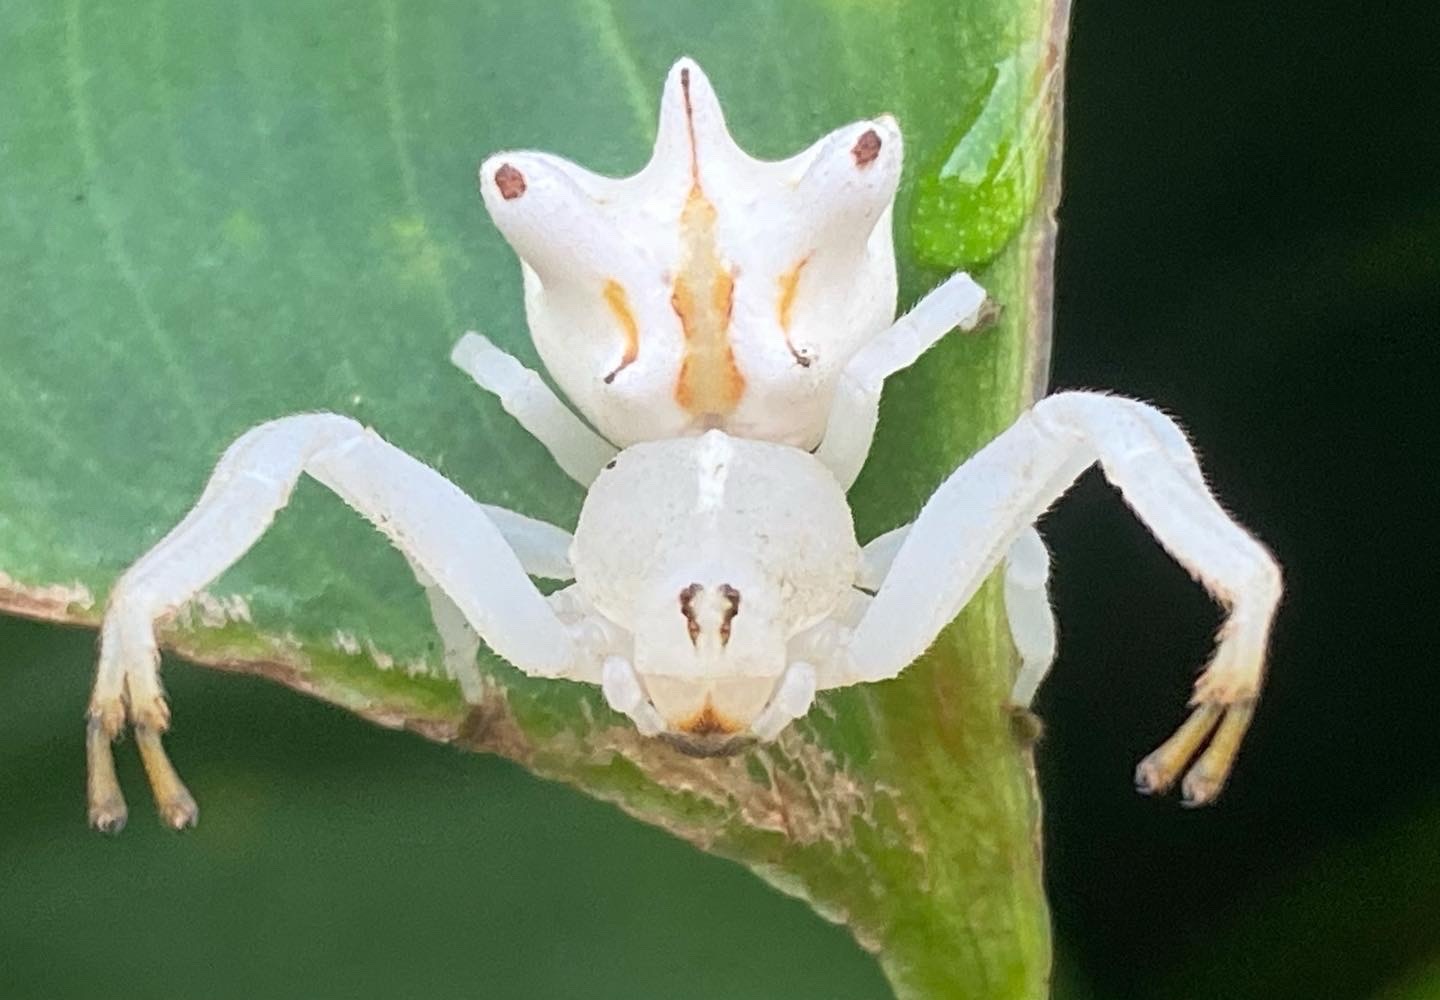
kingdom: Animalia
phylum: Arthropoda
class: Arachnida
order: Araneae
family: Thomisidae
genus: Epicadus
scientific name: Epicadus heterogaster
